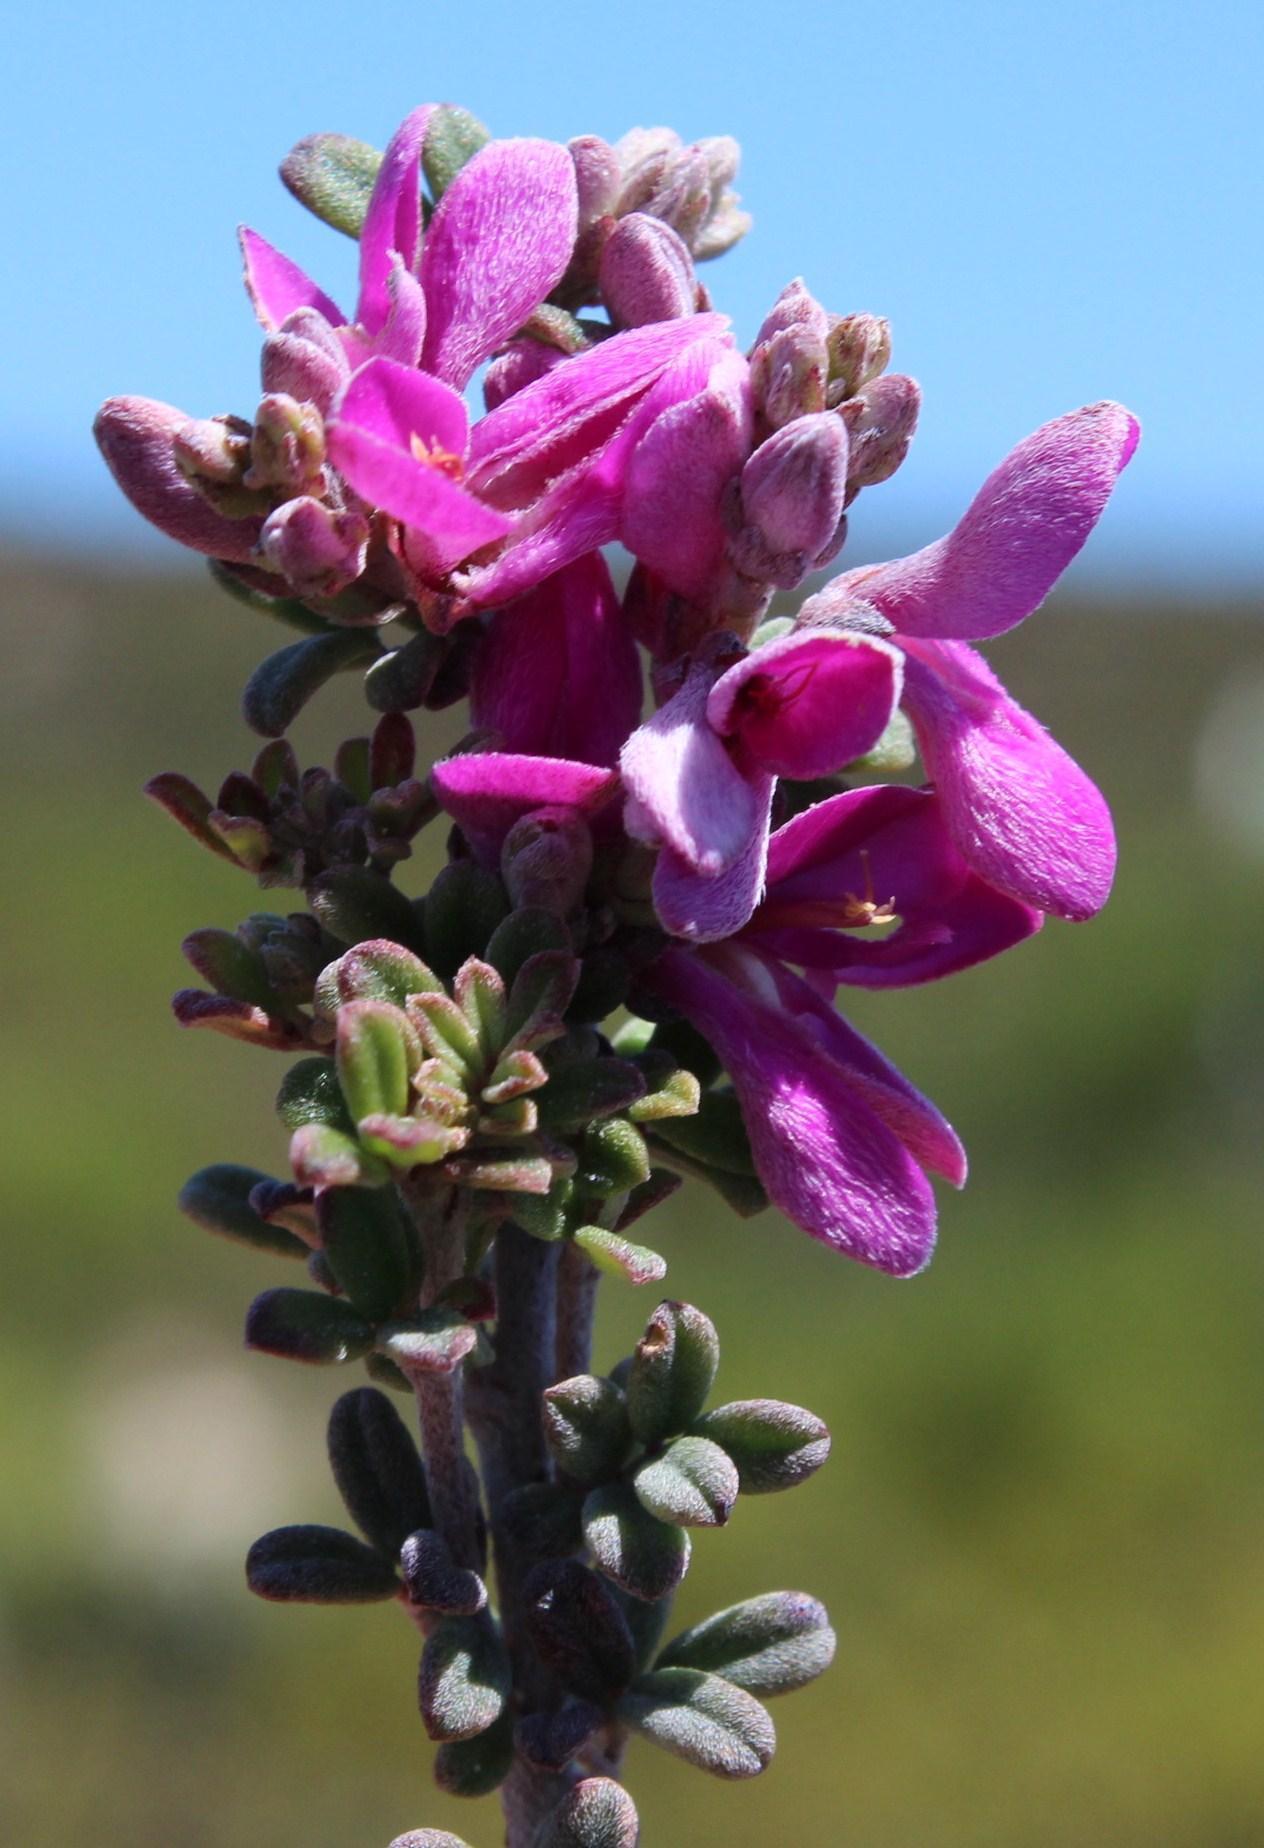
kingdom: Plantae
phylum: Tracheophyta
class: Magnoliopsida
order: Fabales
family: Fabaceae
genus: Indigofera
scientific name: Indigofera
